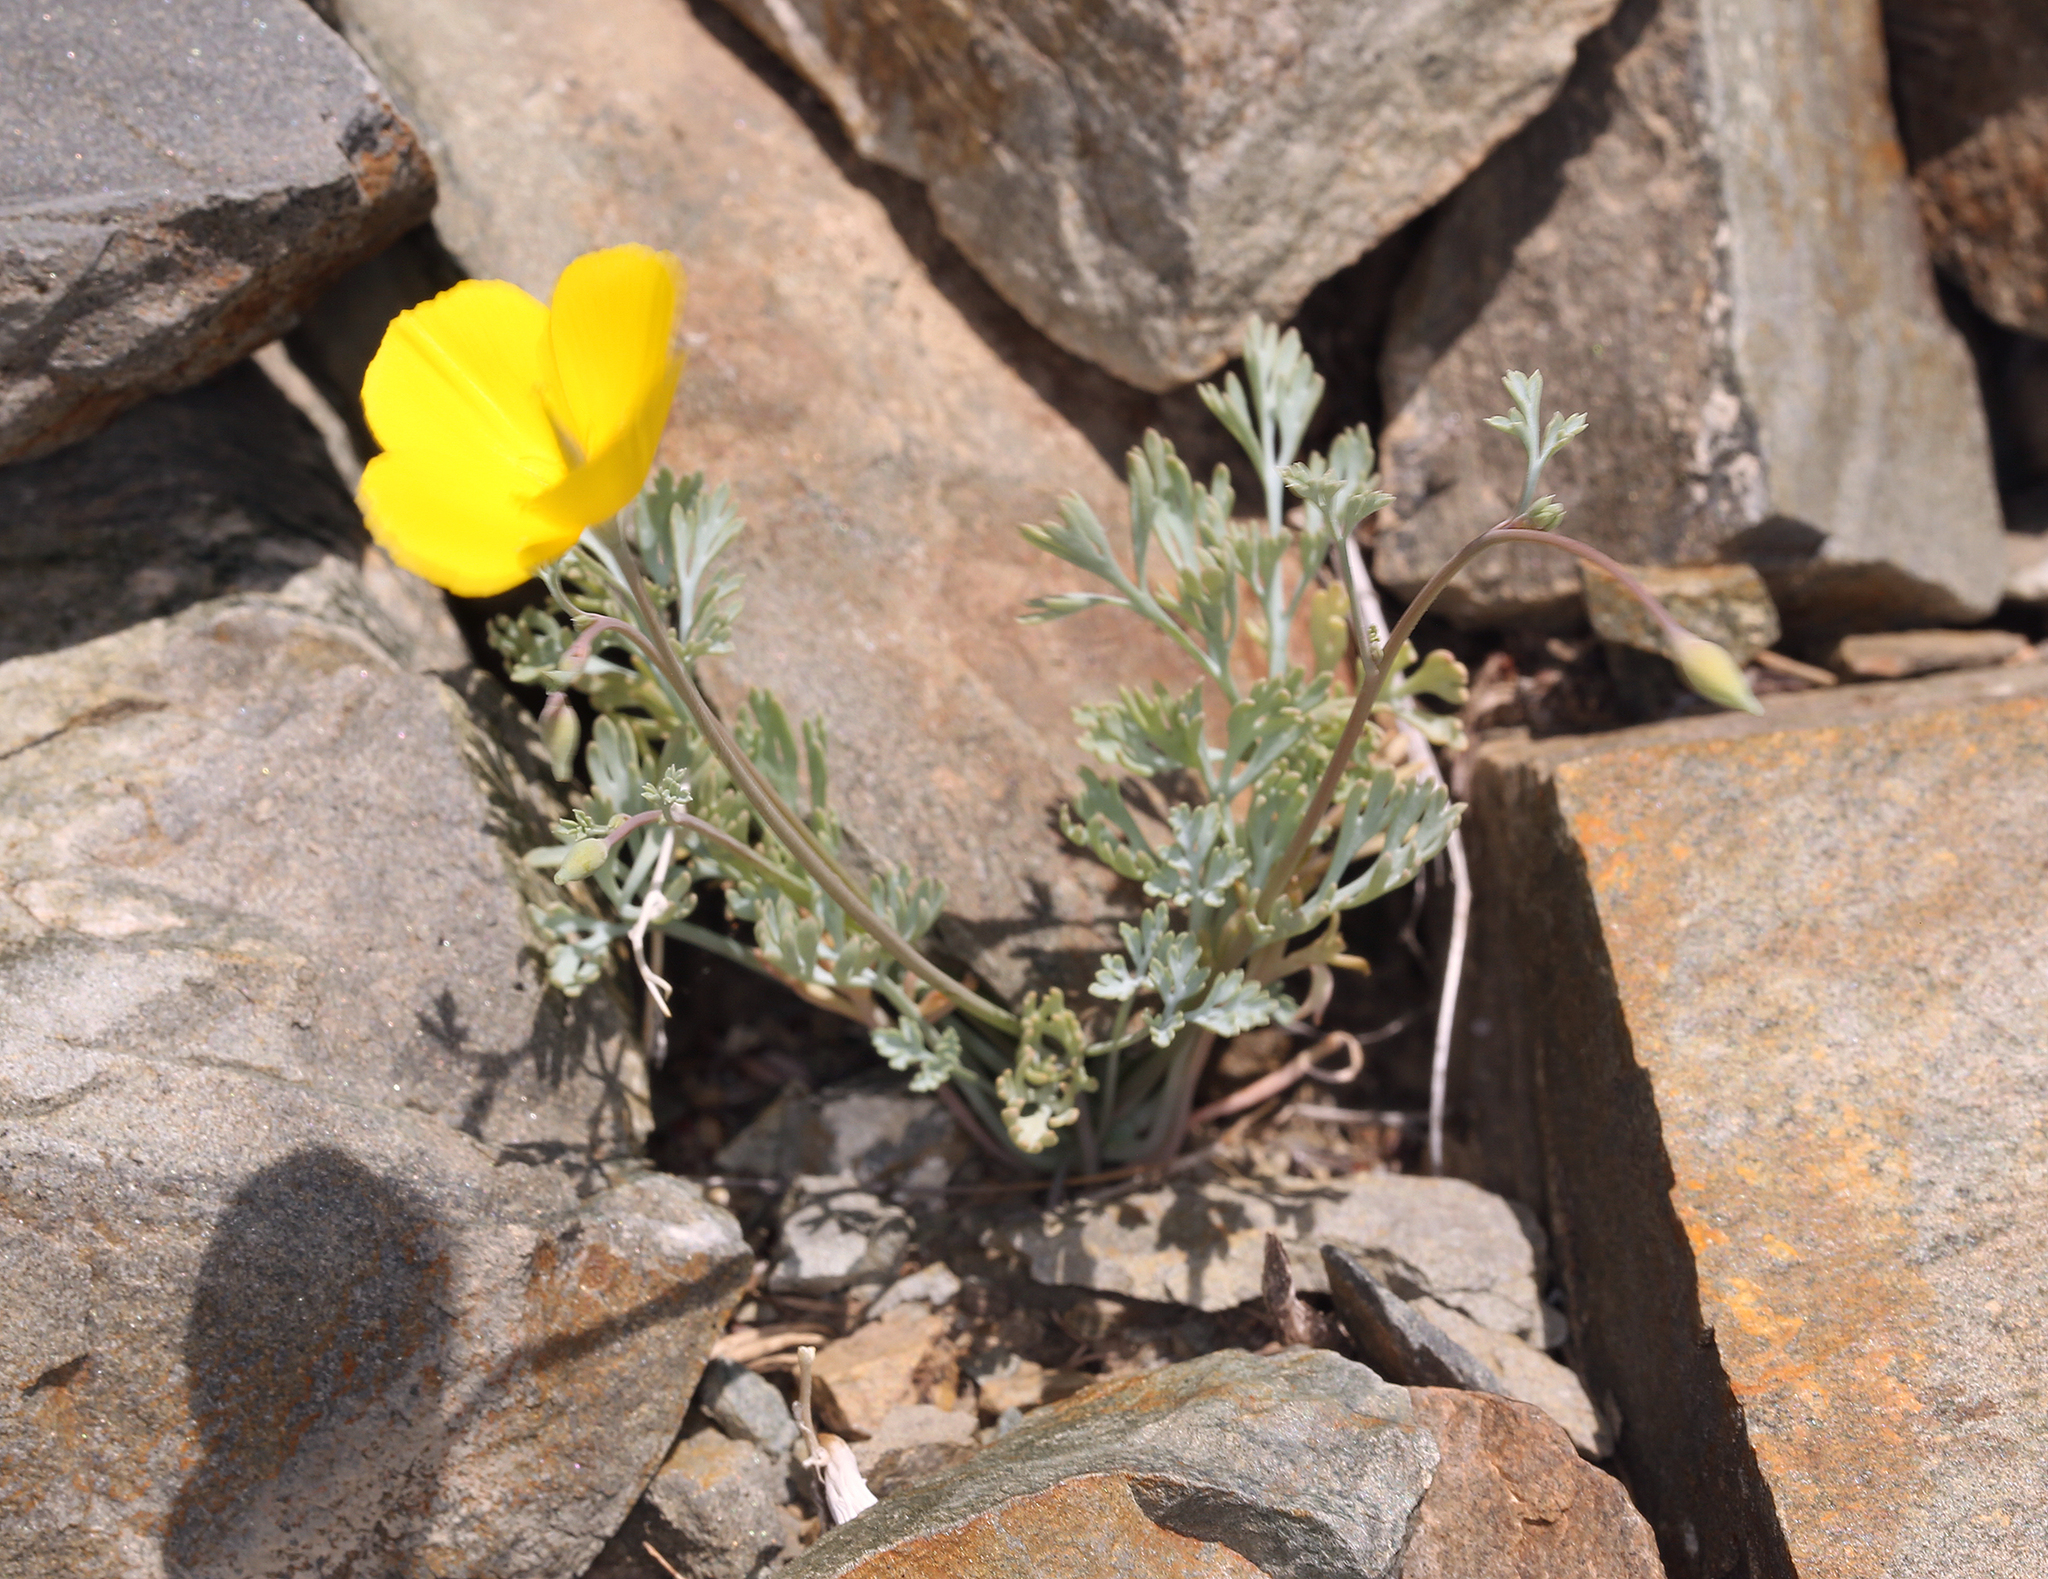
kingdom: Plantae
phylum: Tracheophyta
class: Magnoliopsida
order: Ranunculales
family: Papaveraceae
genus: Eschscholzia
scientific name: Eschscholzia minutiflora
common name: Small-flower california-poppy
